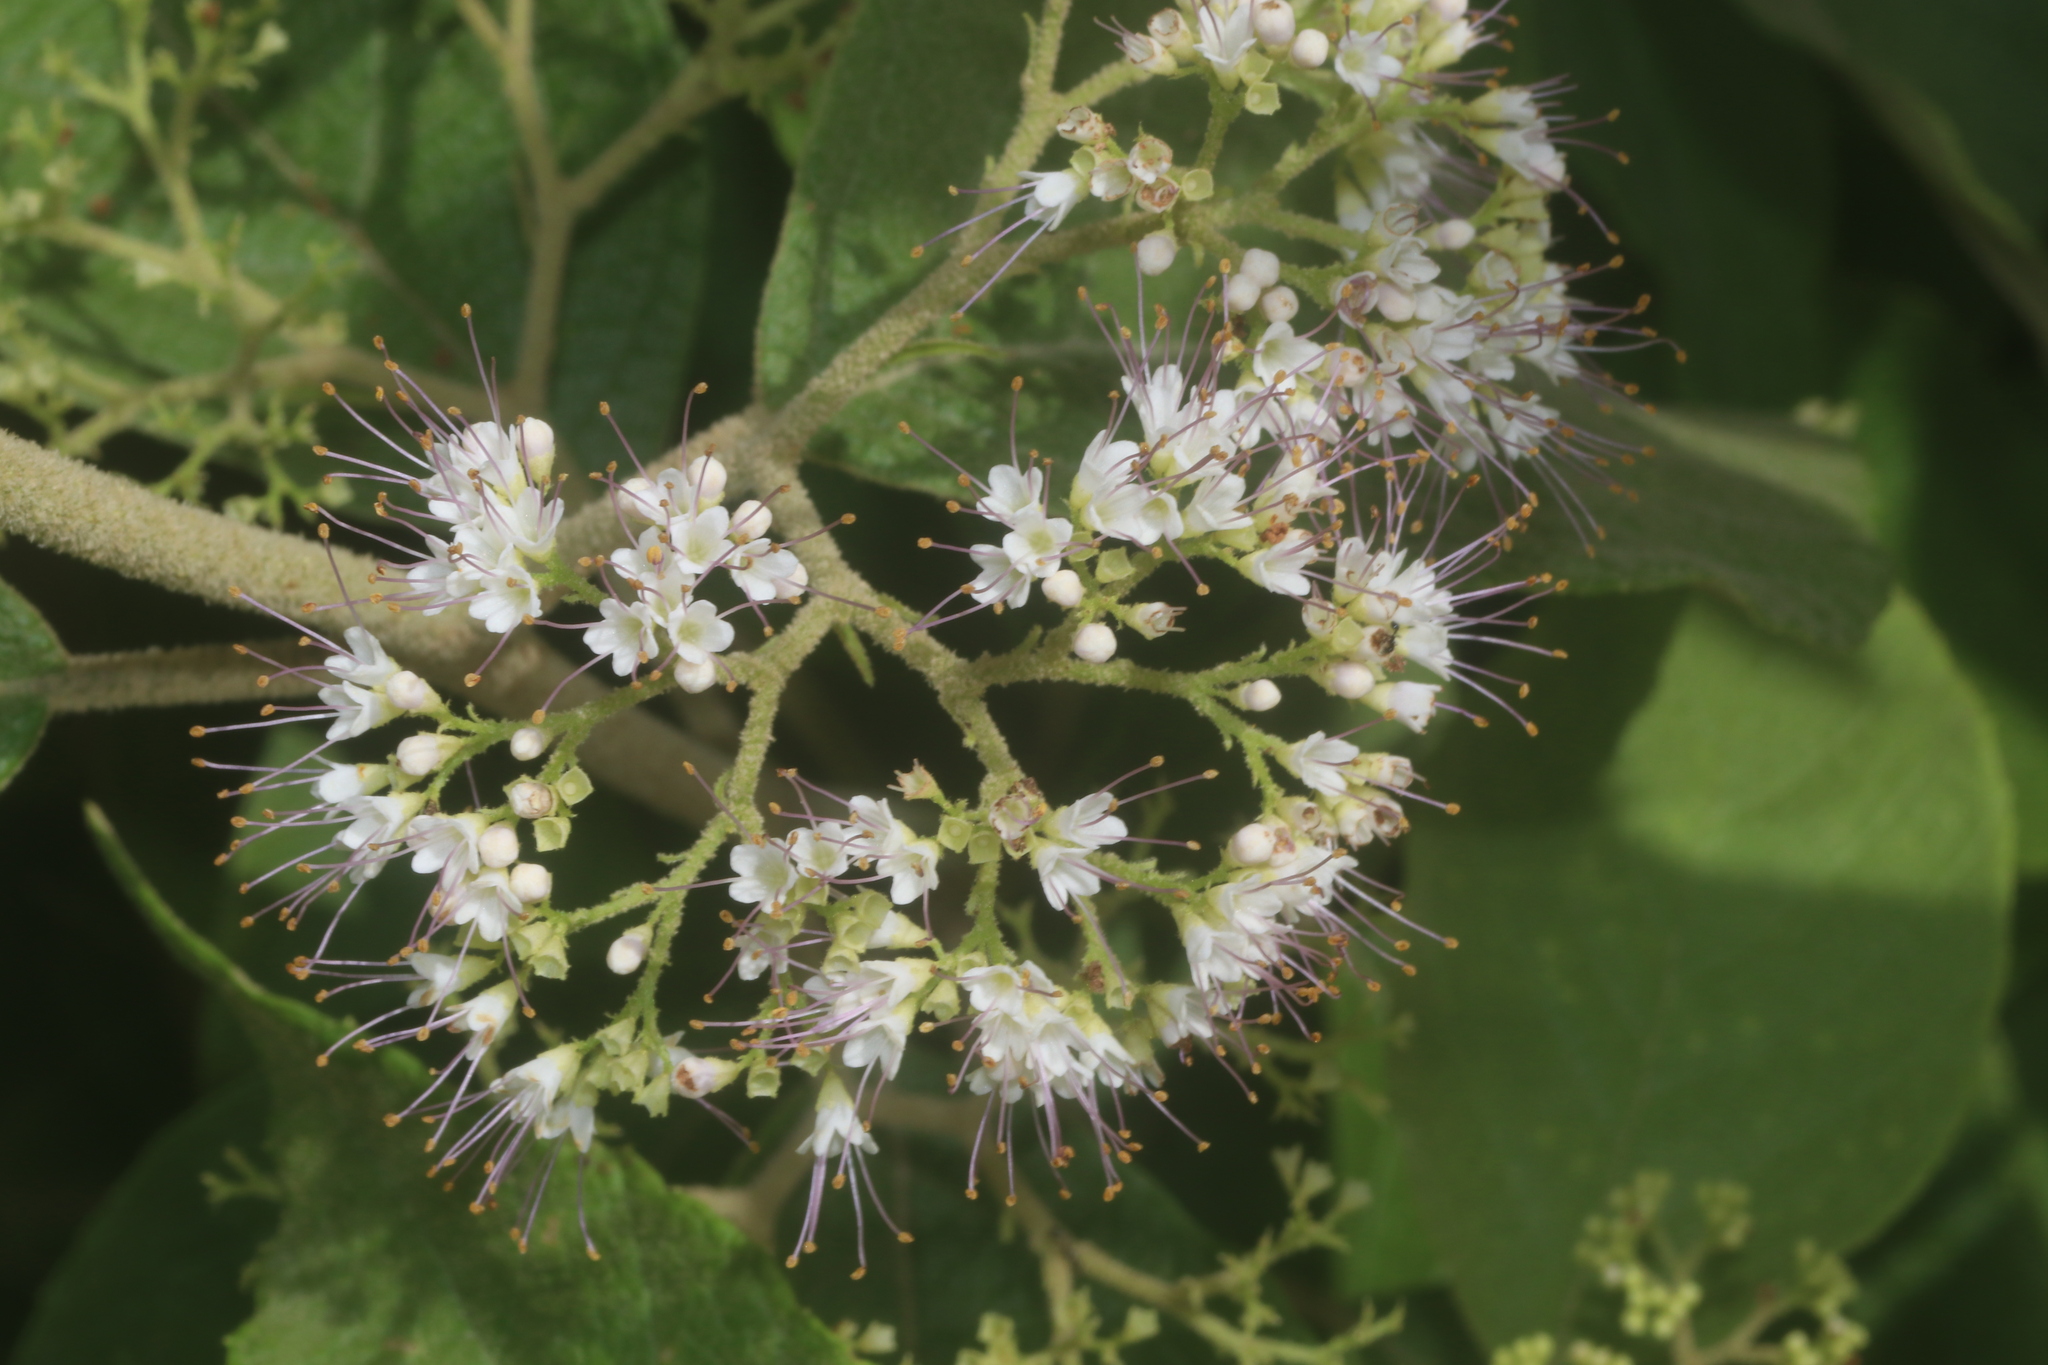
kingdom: Plantae
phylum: Tracheophyta
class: Magnoliopsida
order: Lamiales
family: Lamiaceae
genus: Callicarpa
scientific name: Callicarpa acuminata
